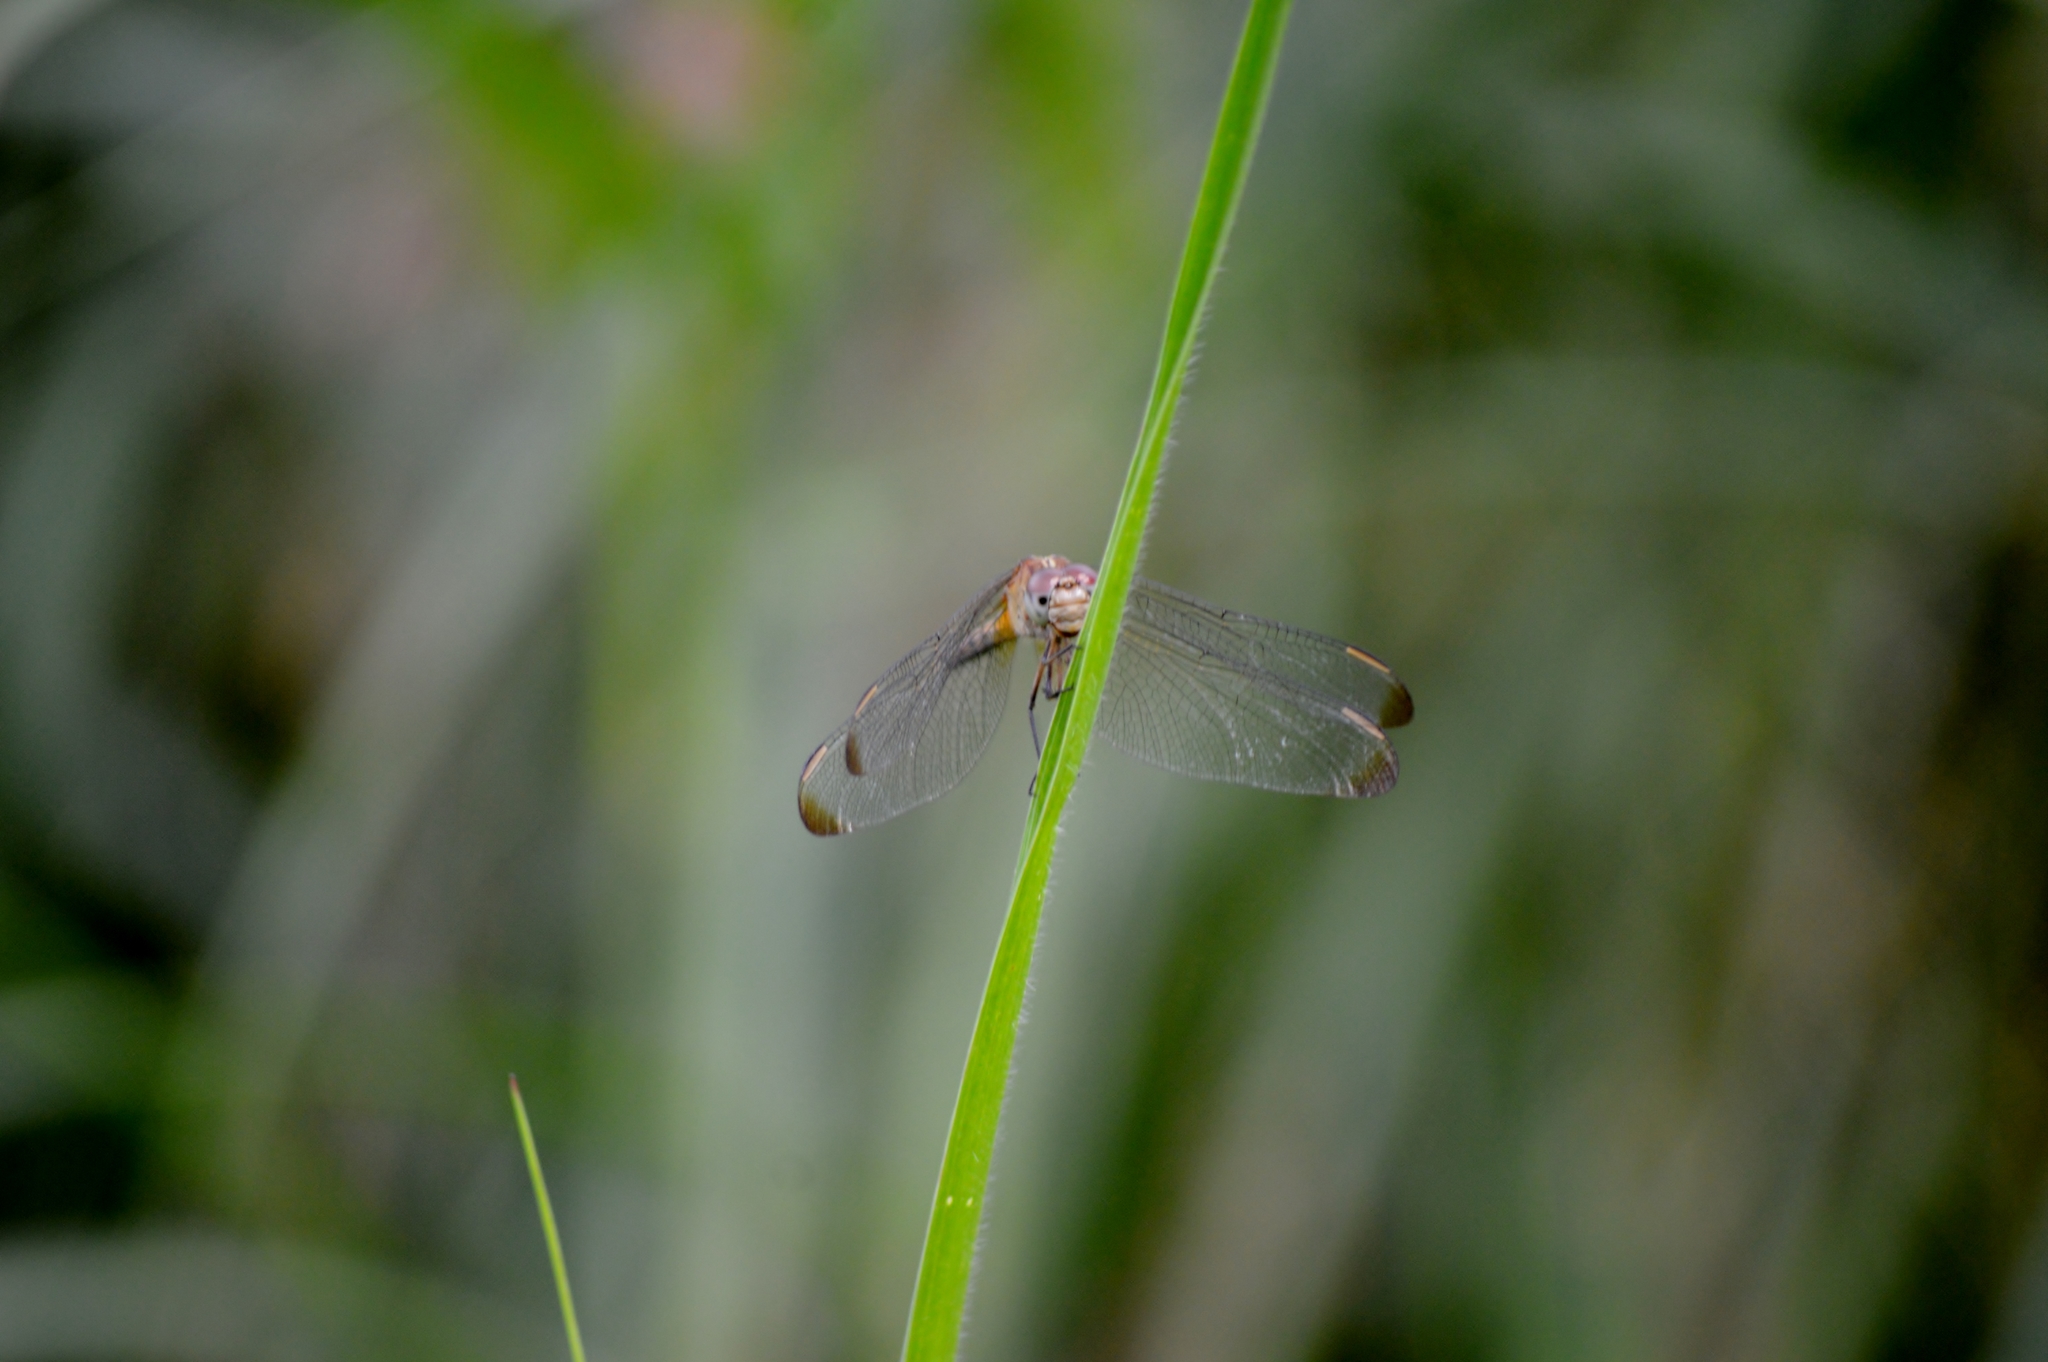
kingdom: Animalia
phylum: Arthropoda
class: Insecta
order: Odonata
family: Libellulidae
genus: Erythrodiplax
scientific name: Erythrodiplax umbrata
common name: Band-winged dragonlet
